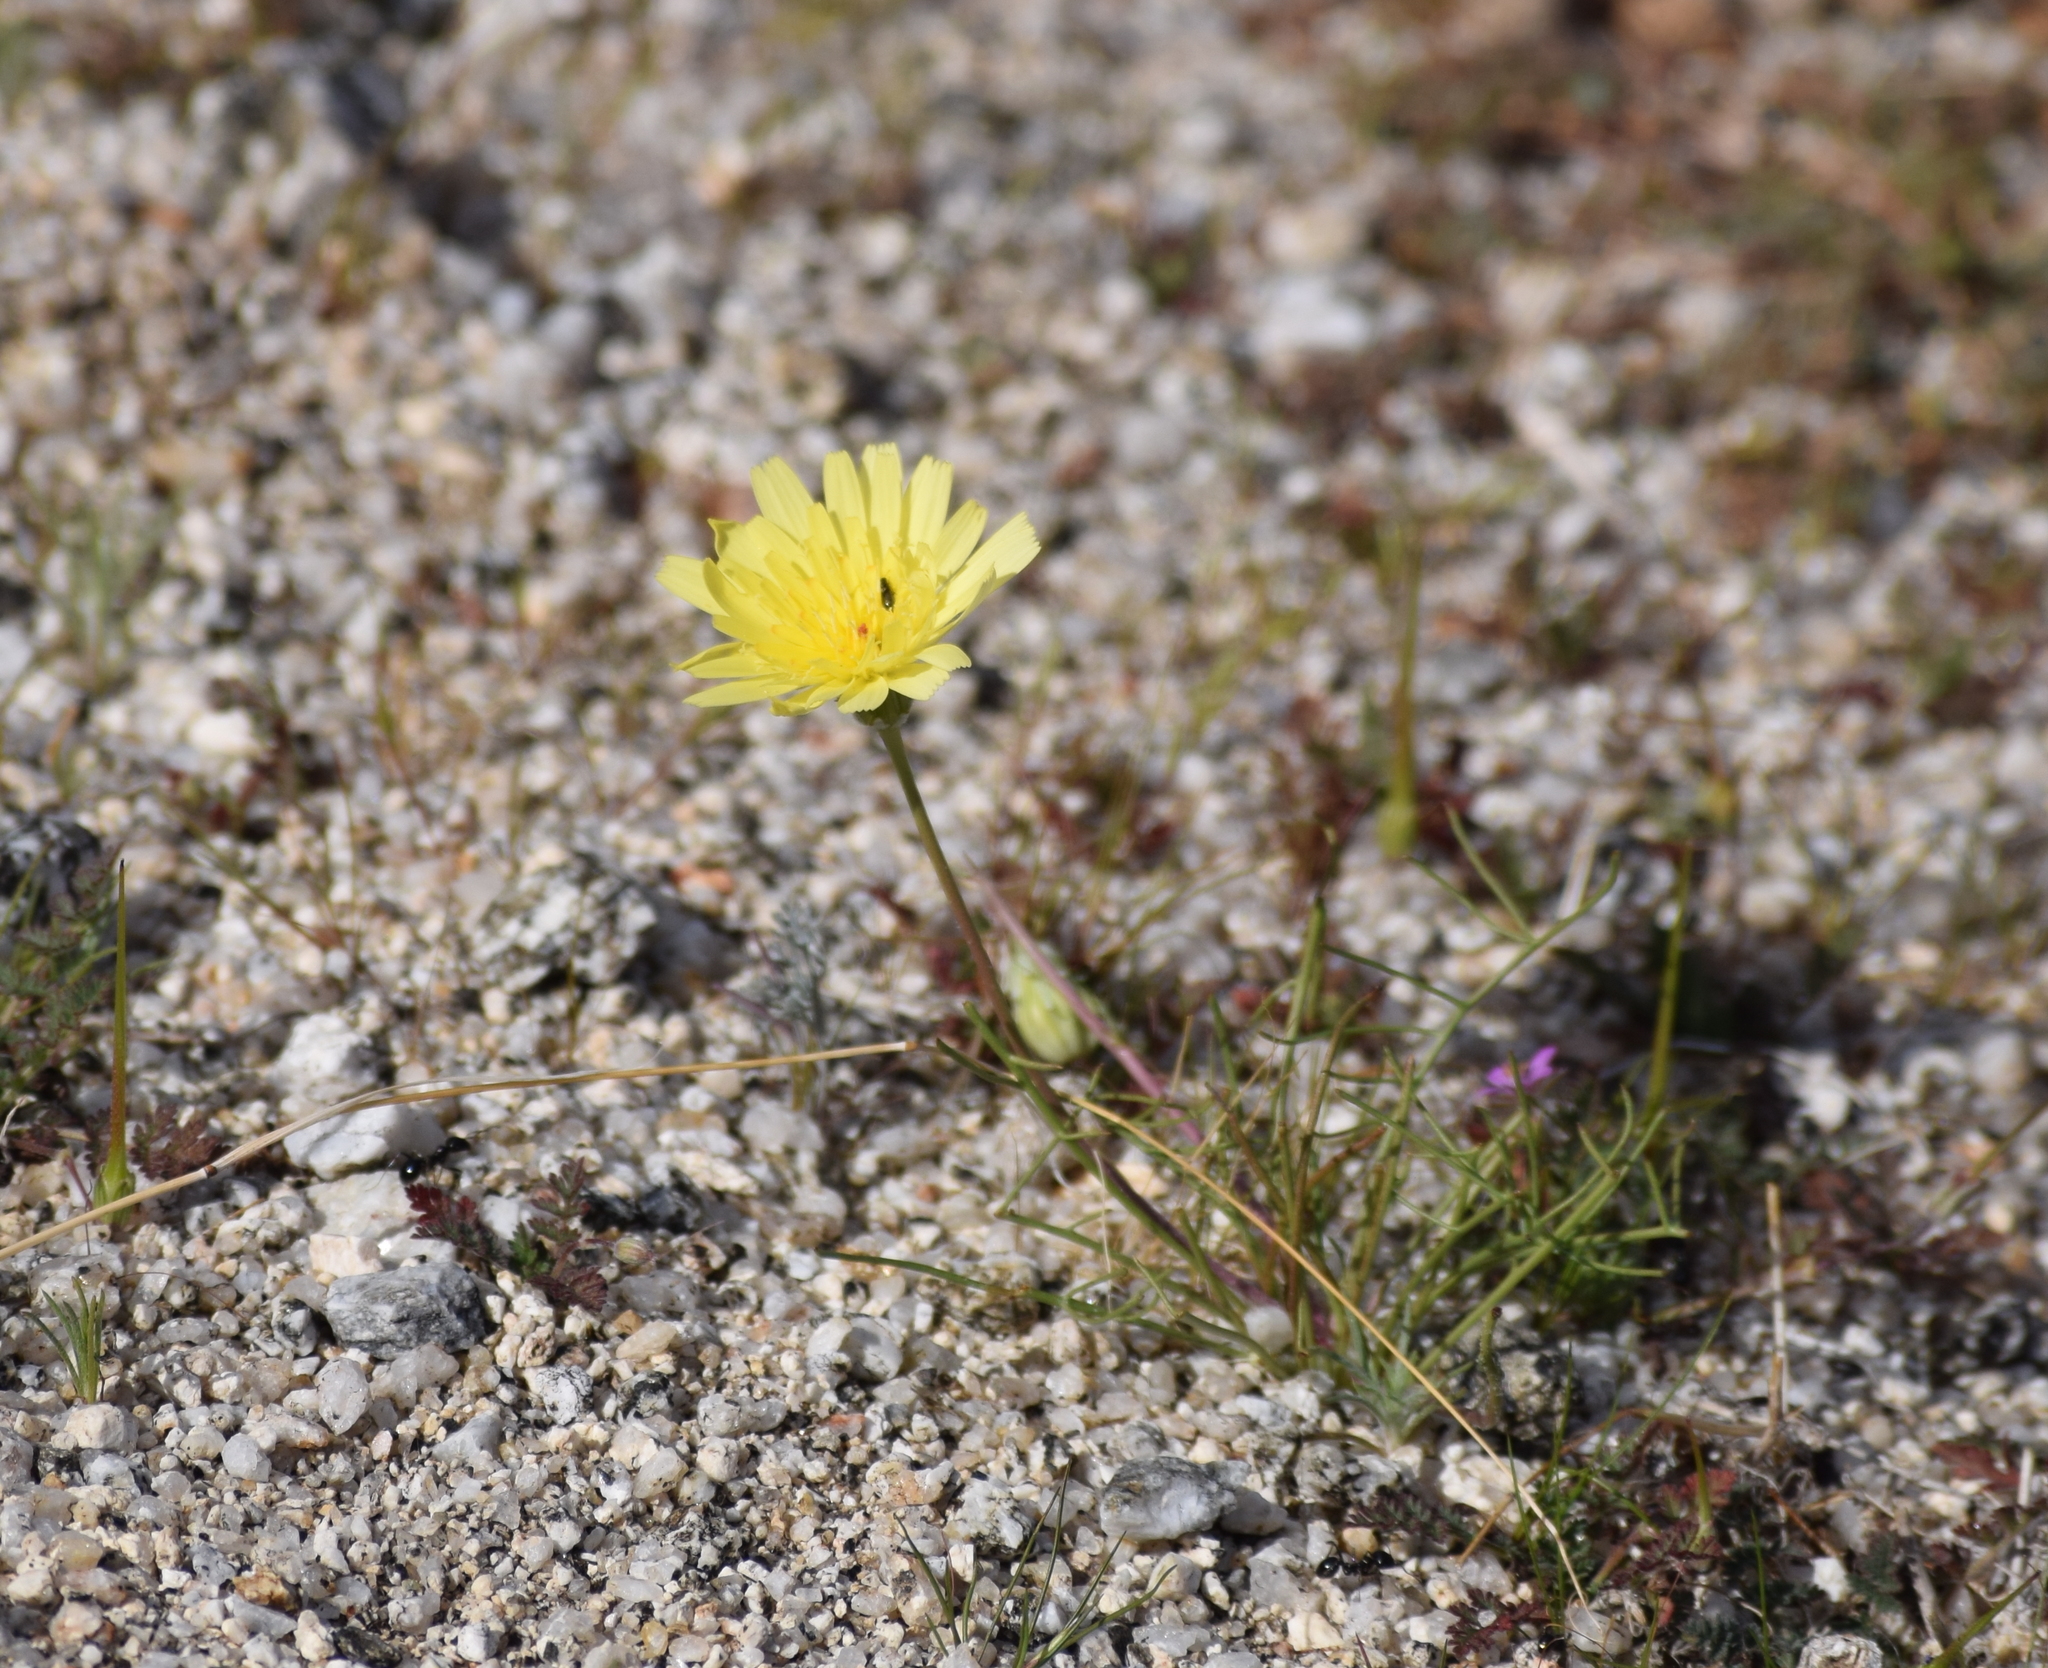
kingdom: Plantae
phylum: Tracheophyta
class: Magnoliopsida
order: Asterales
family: Asteraceae
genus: Malacothrix
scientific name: Malacothrix glabrata
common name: Smooth desert-dandelion
